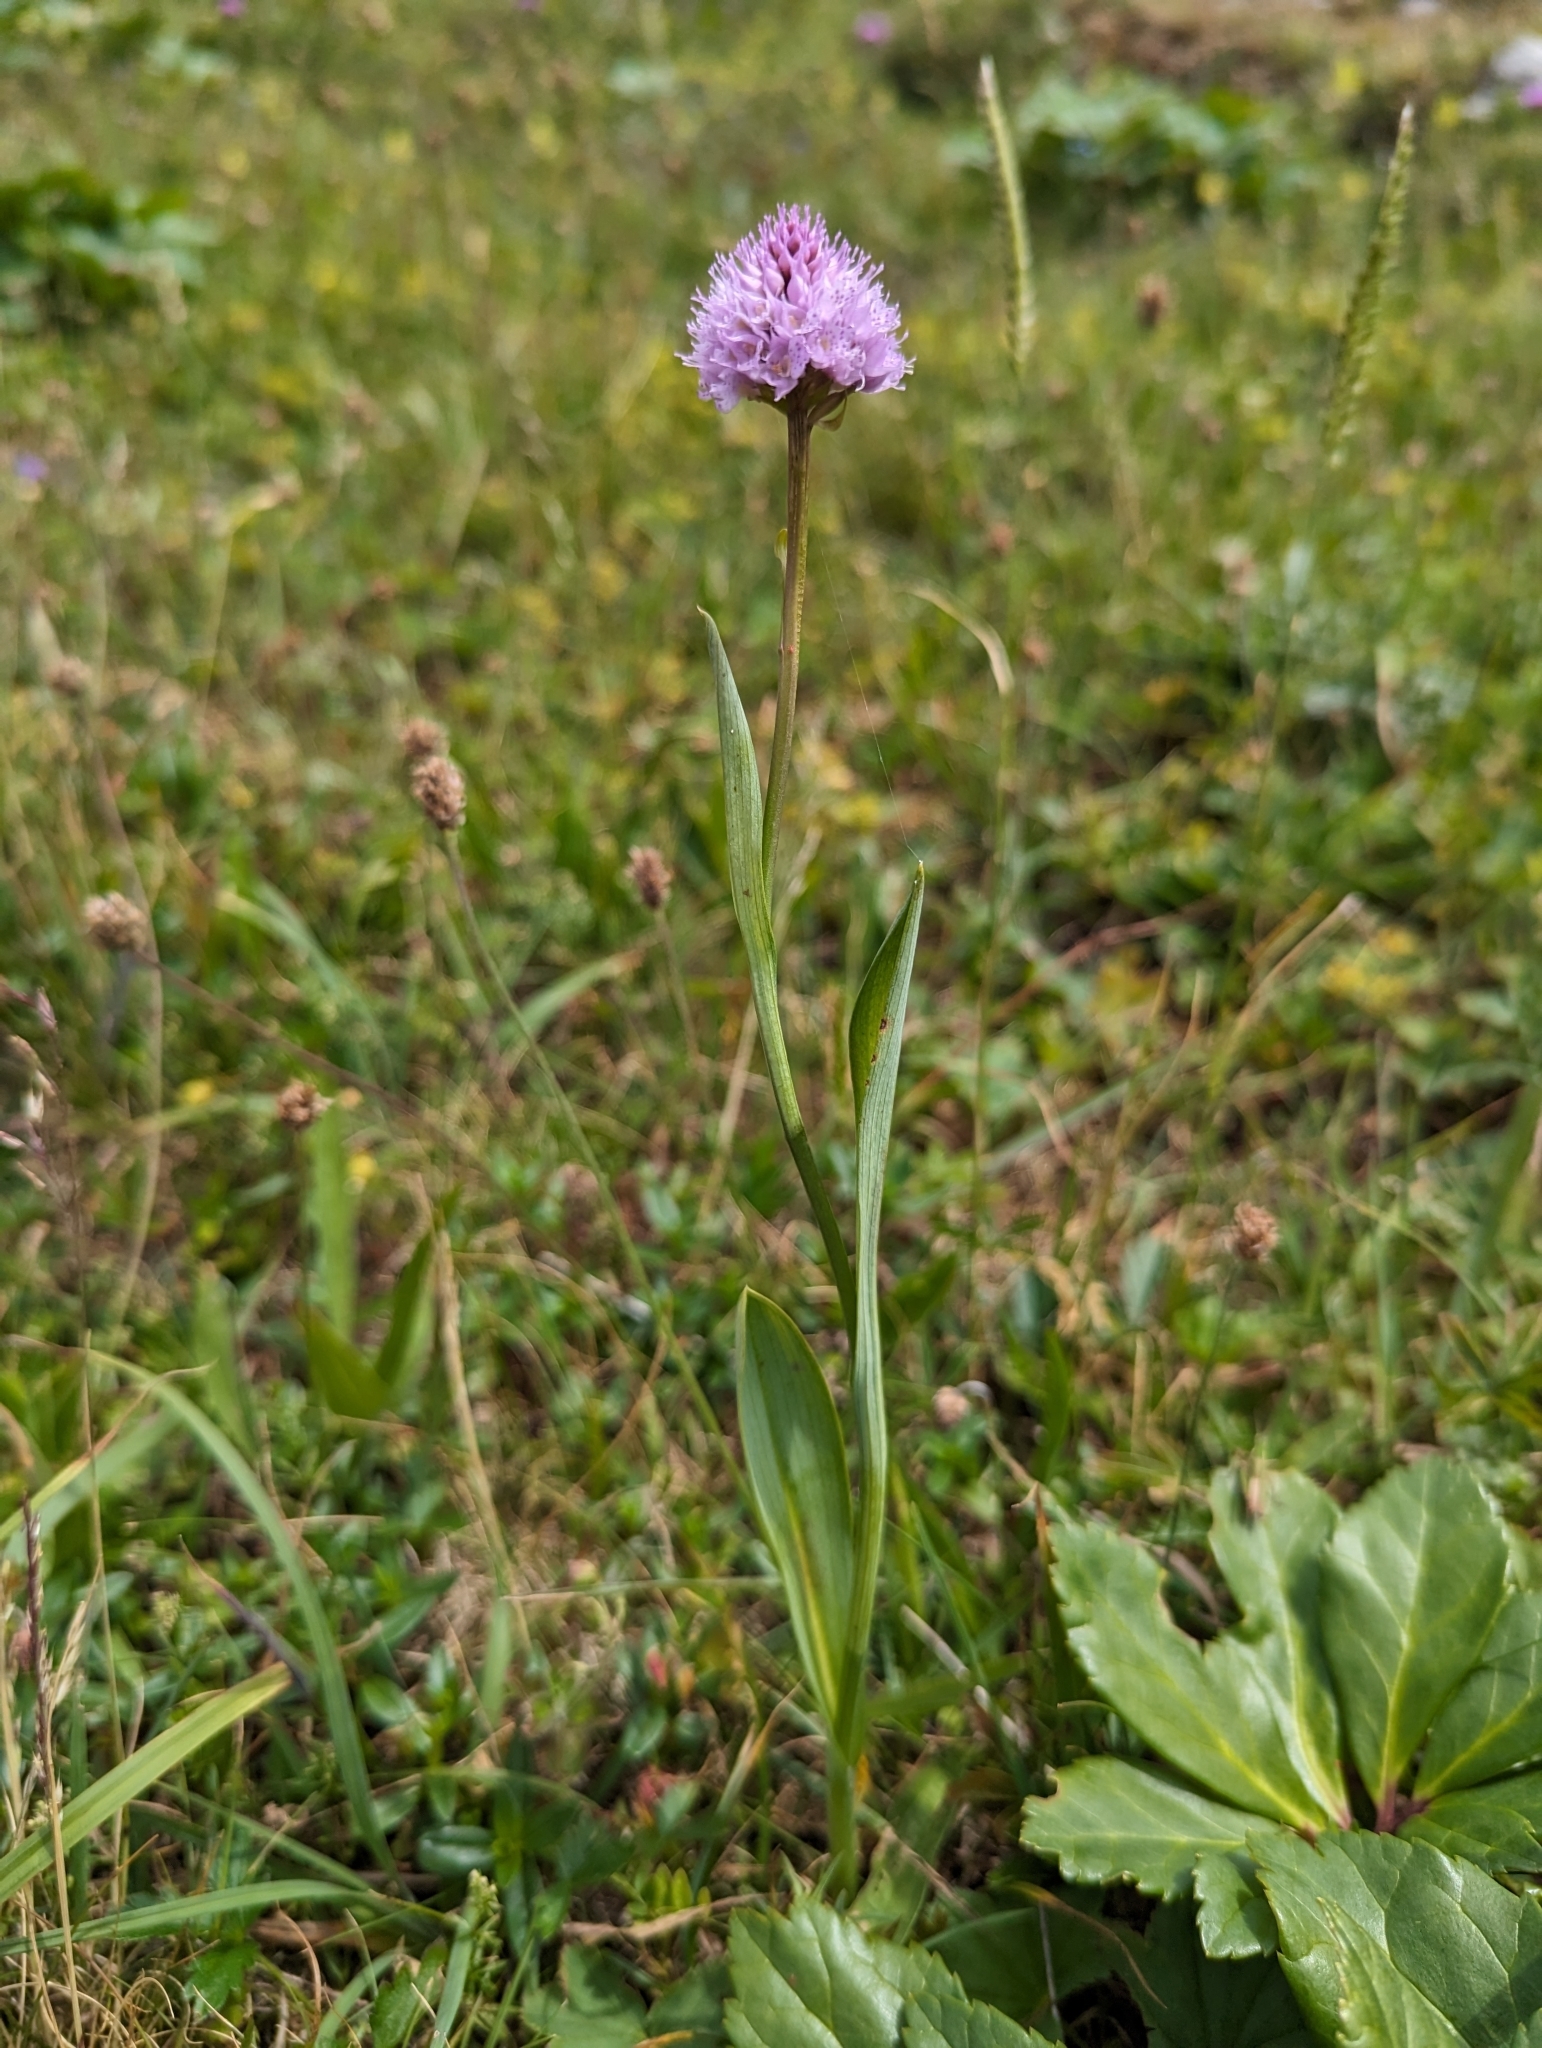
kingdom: Plantae
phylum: Tracheophyta
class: Liliopsida
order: Asparagales
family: Orchidaceae
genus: Traunsteinera
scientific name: Traunsteinera globosa
